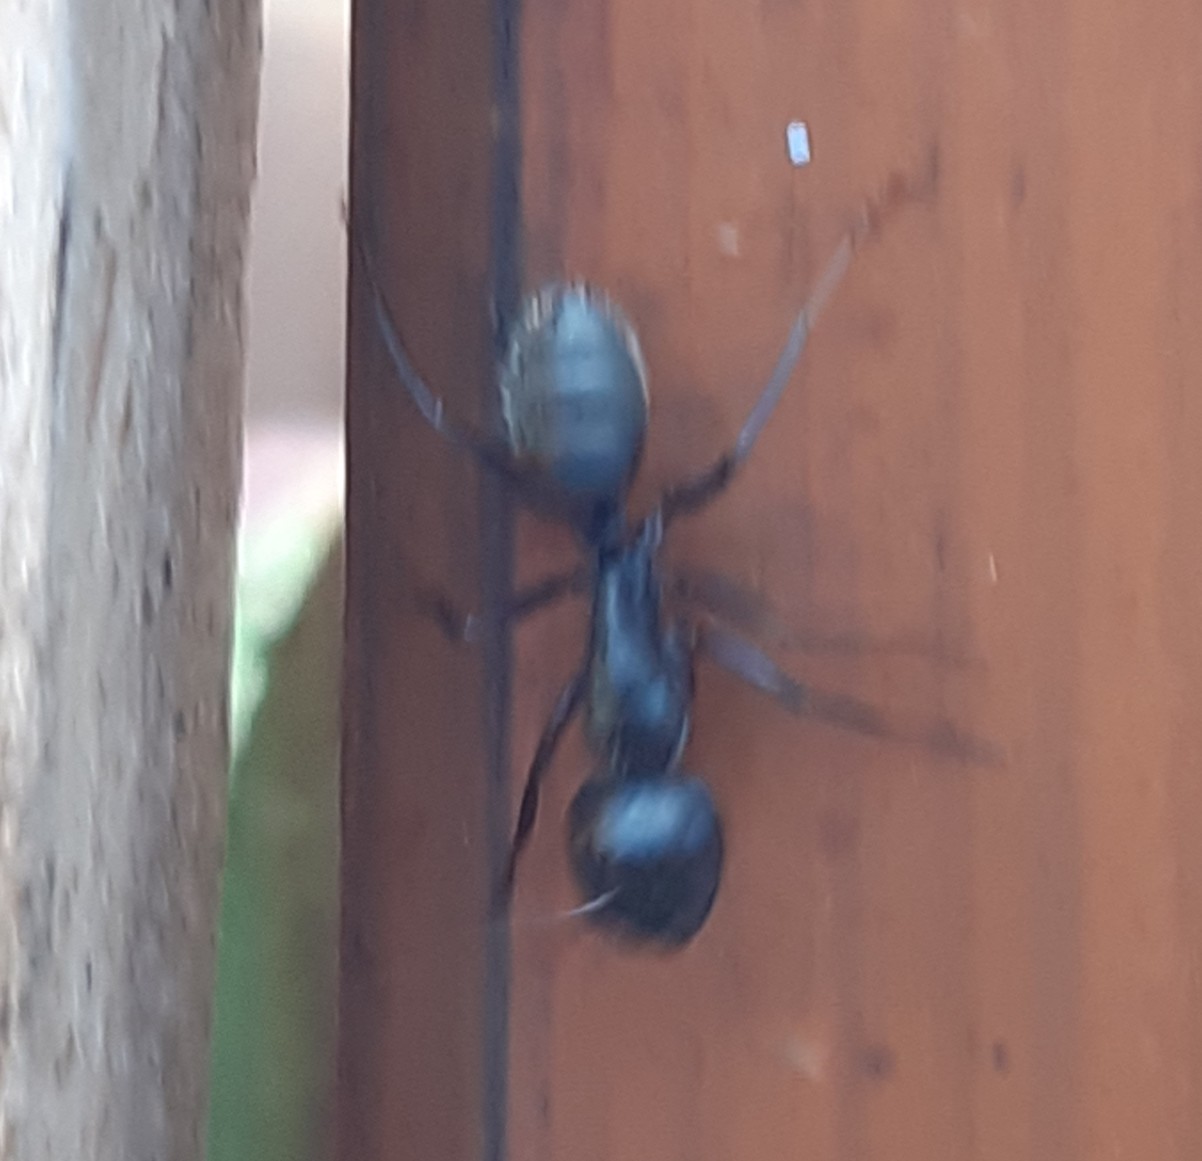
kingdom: Animalia
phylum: Arthropoda
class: Insecta
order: Hymenoptera
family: Formicidae
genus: Camponotus
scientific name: Camponotus vagus
